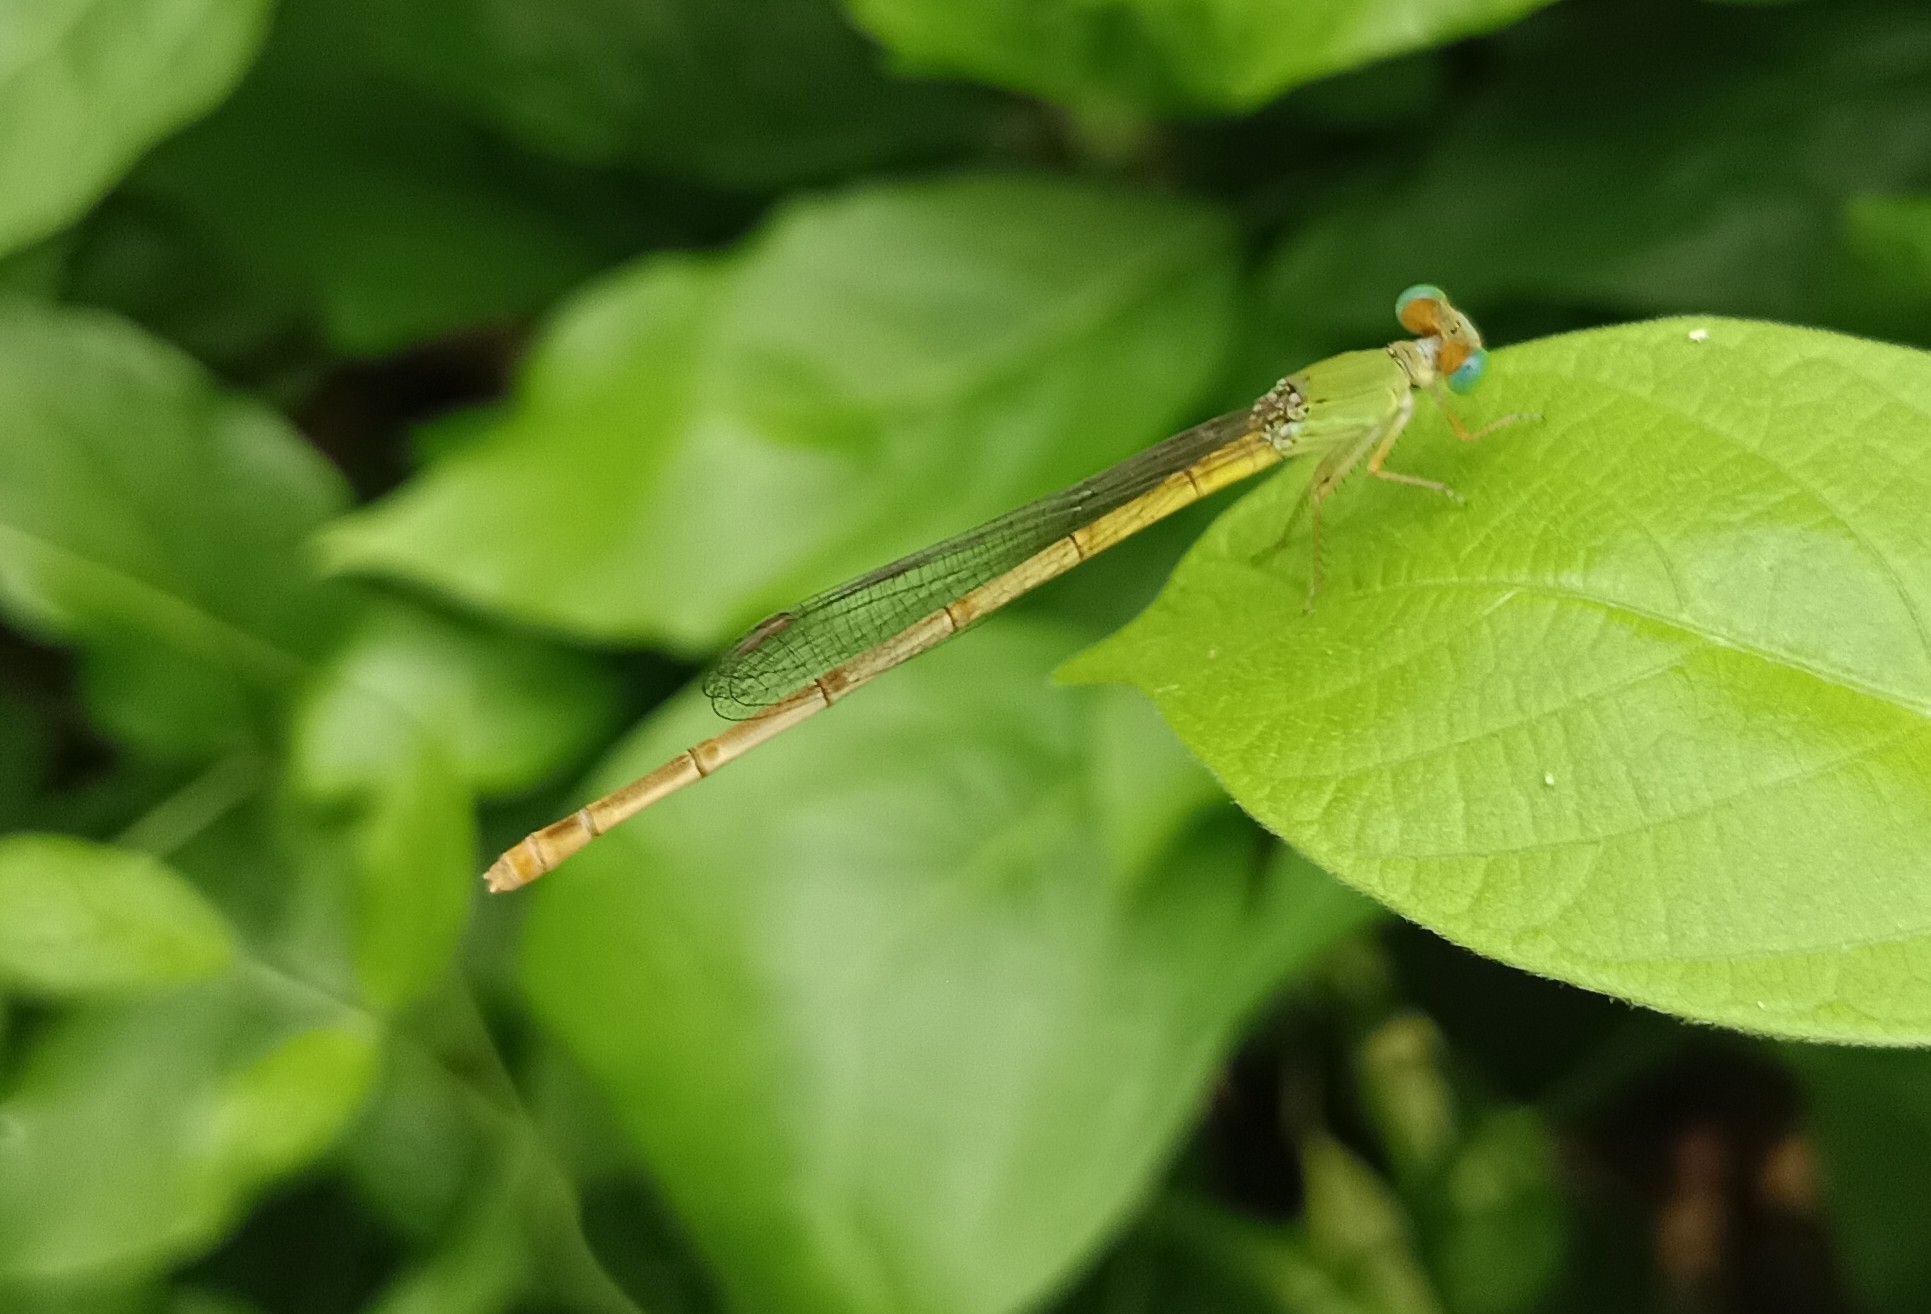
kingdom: Animalia
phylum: Arthropoda
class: Insecta
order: Odonata
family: Coenagrionidae
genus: Ceriagrion
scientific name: Ceriagrion coromandelianum
